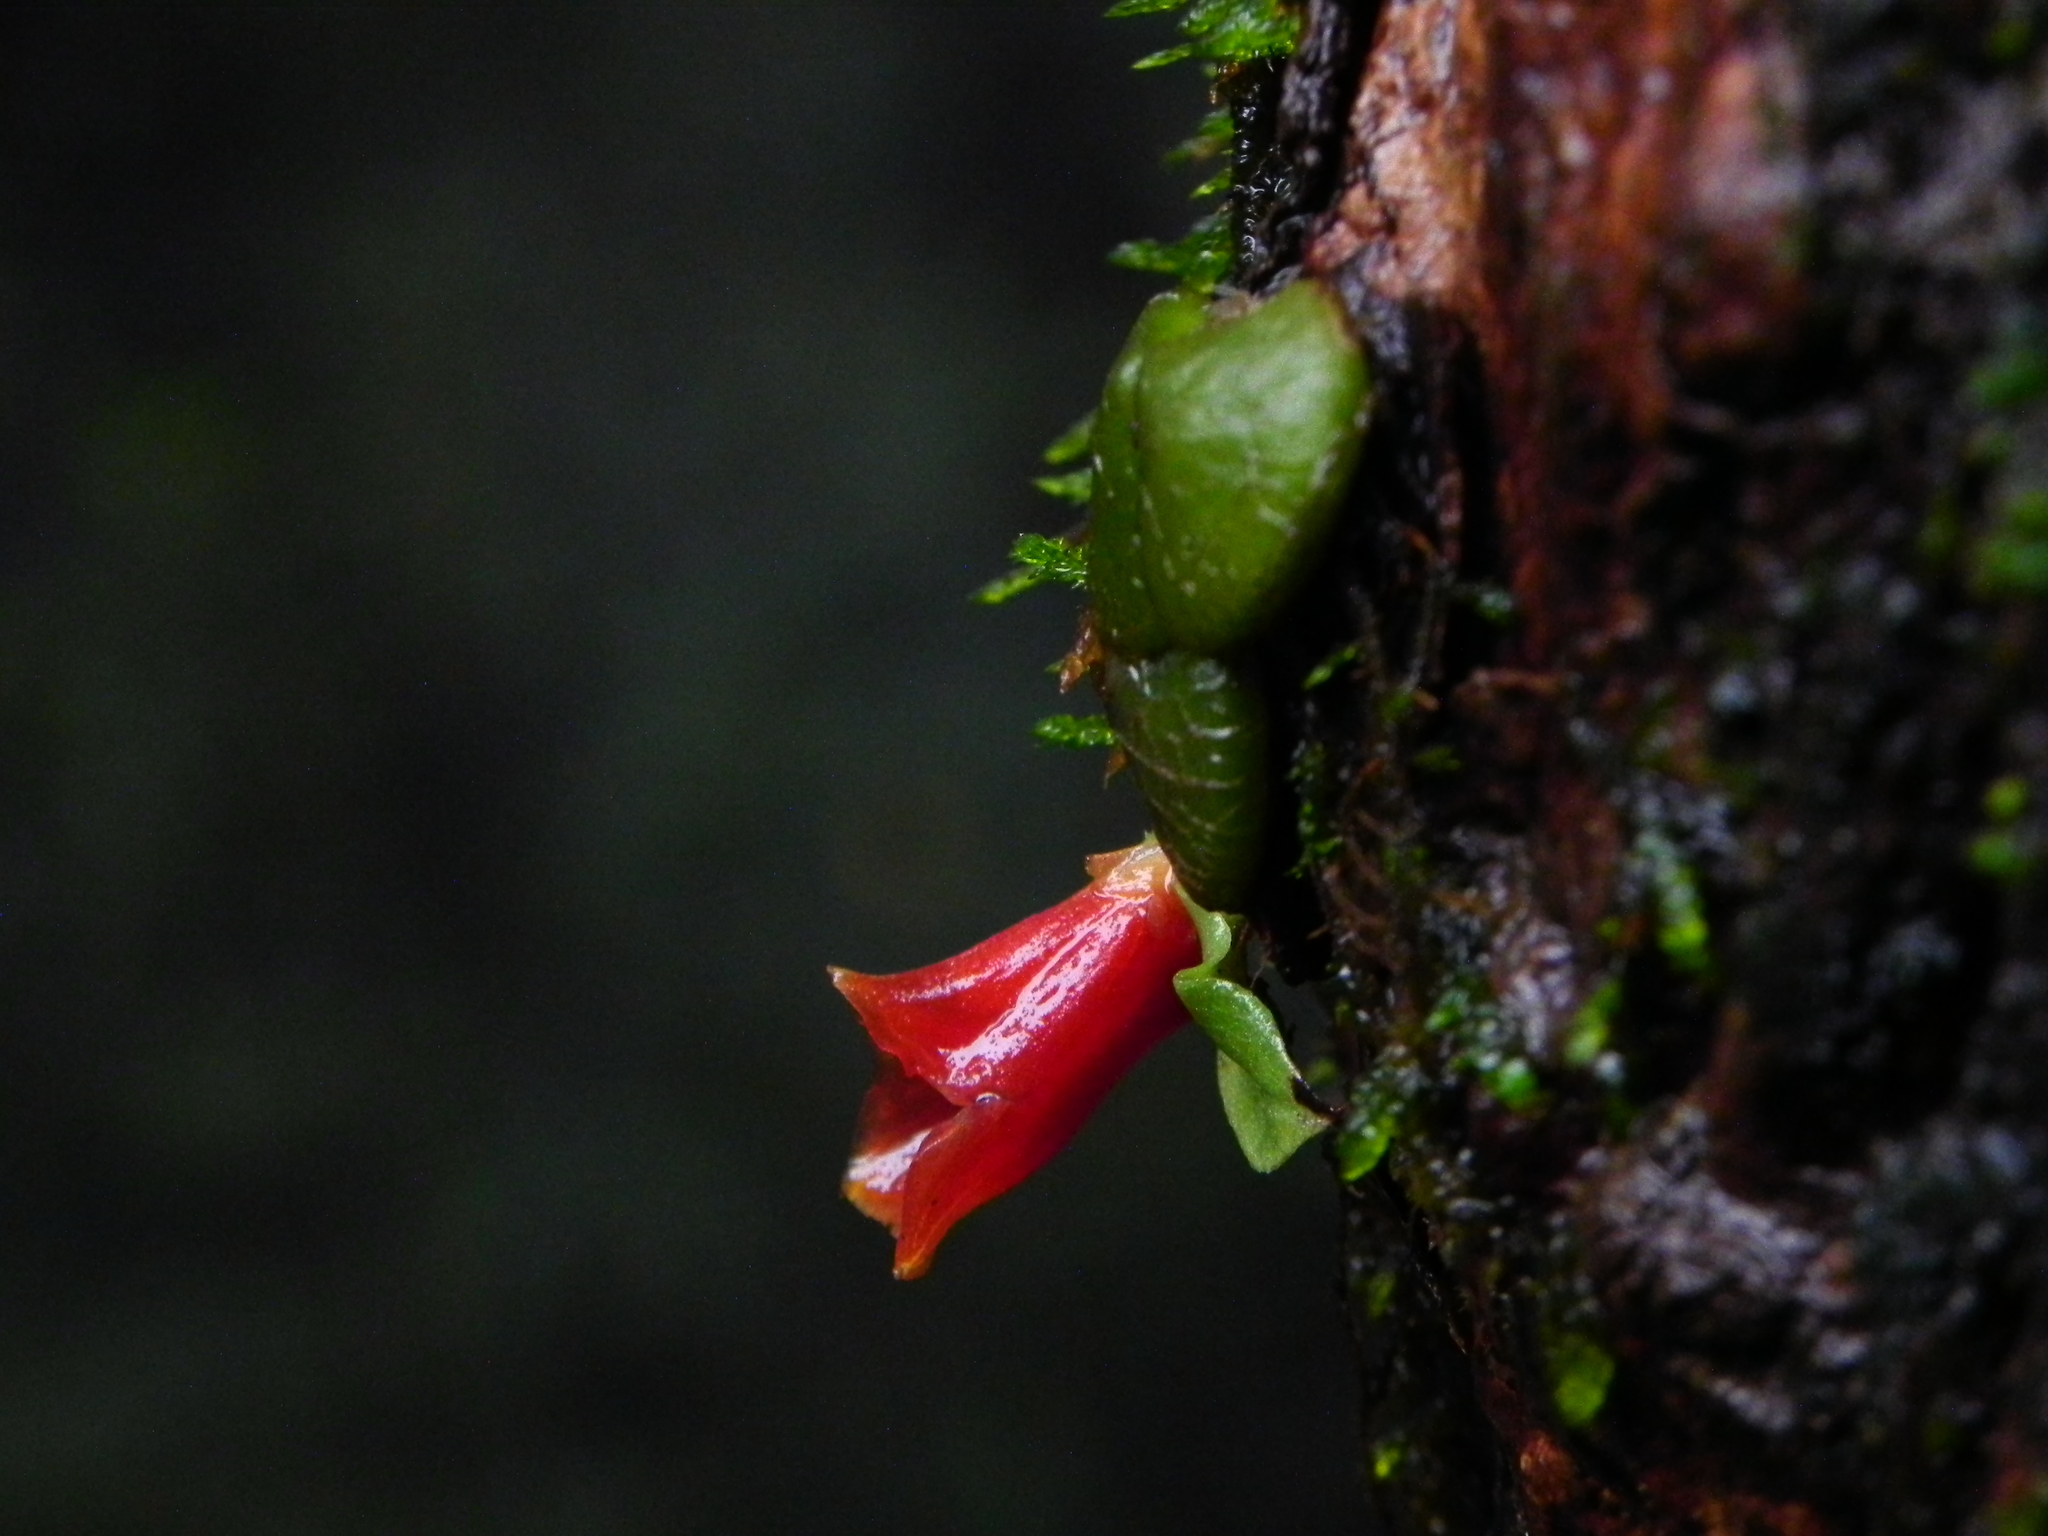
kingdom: Plantae
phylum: Tracheophyta
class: Liliopsida
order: Asparagales
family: Orchidaceae
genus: Porpax
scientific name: Porpax reticulata
